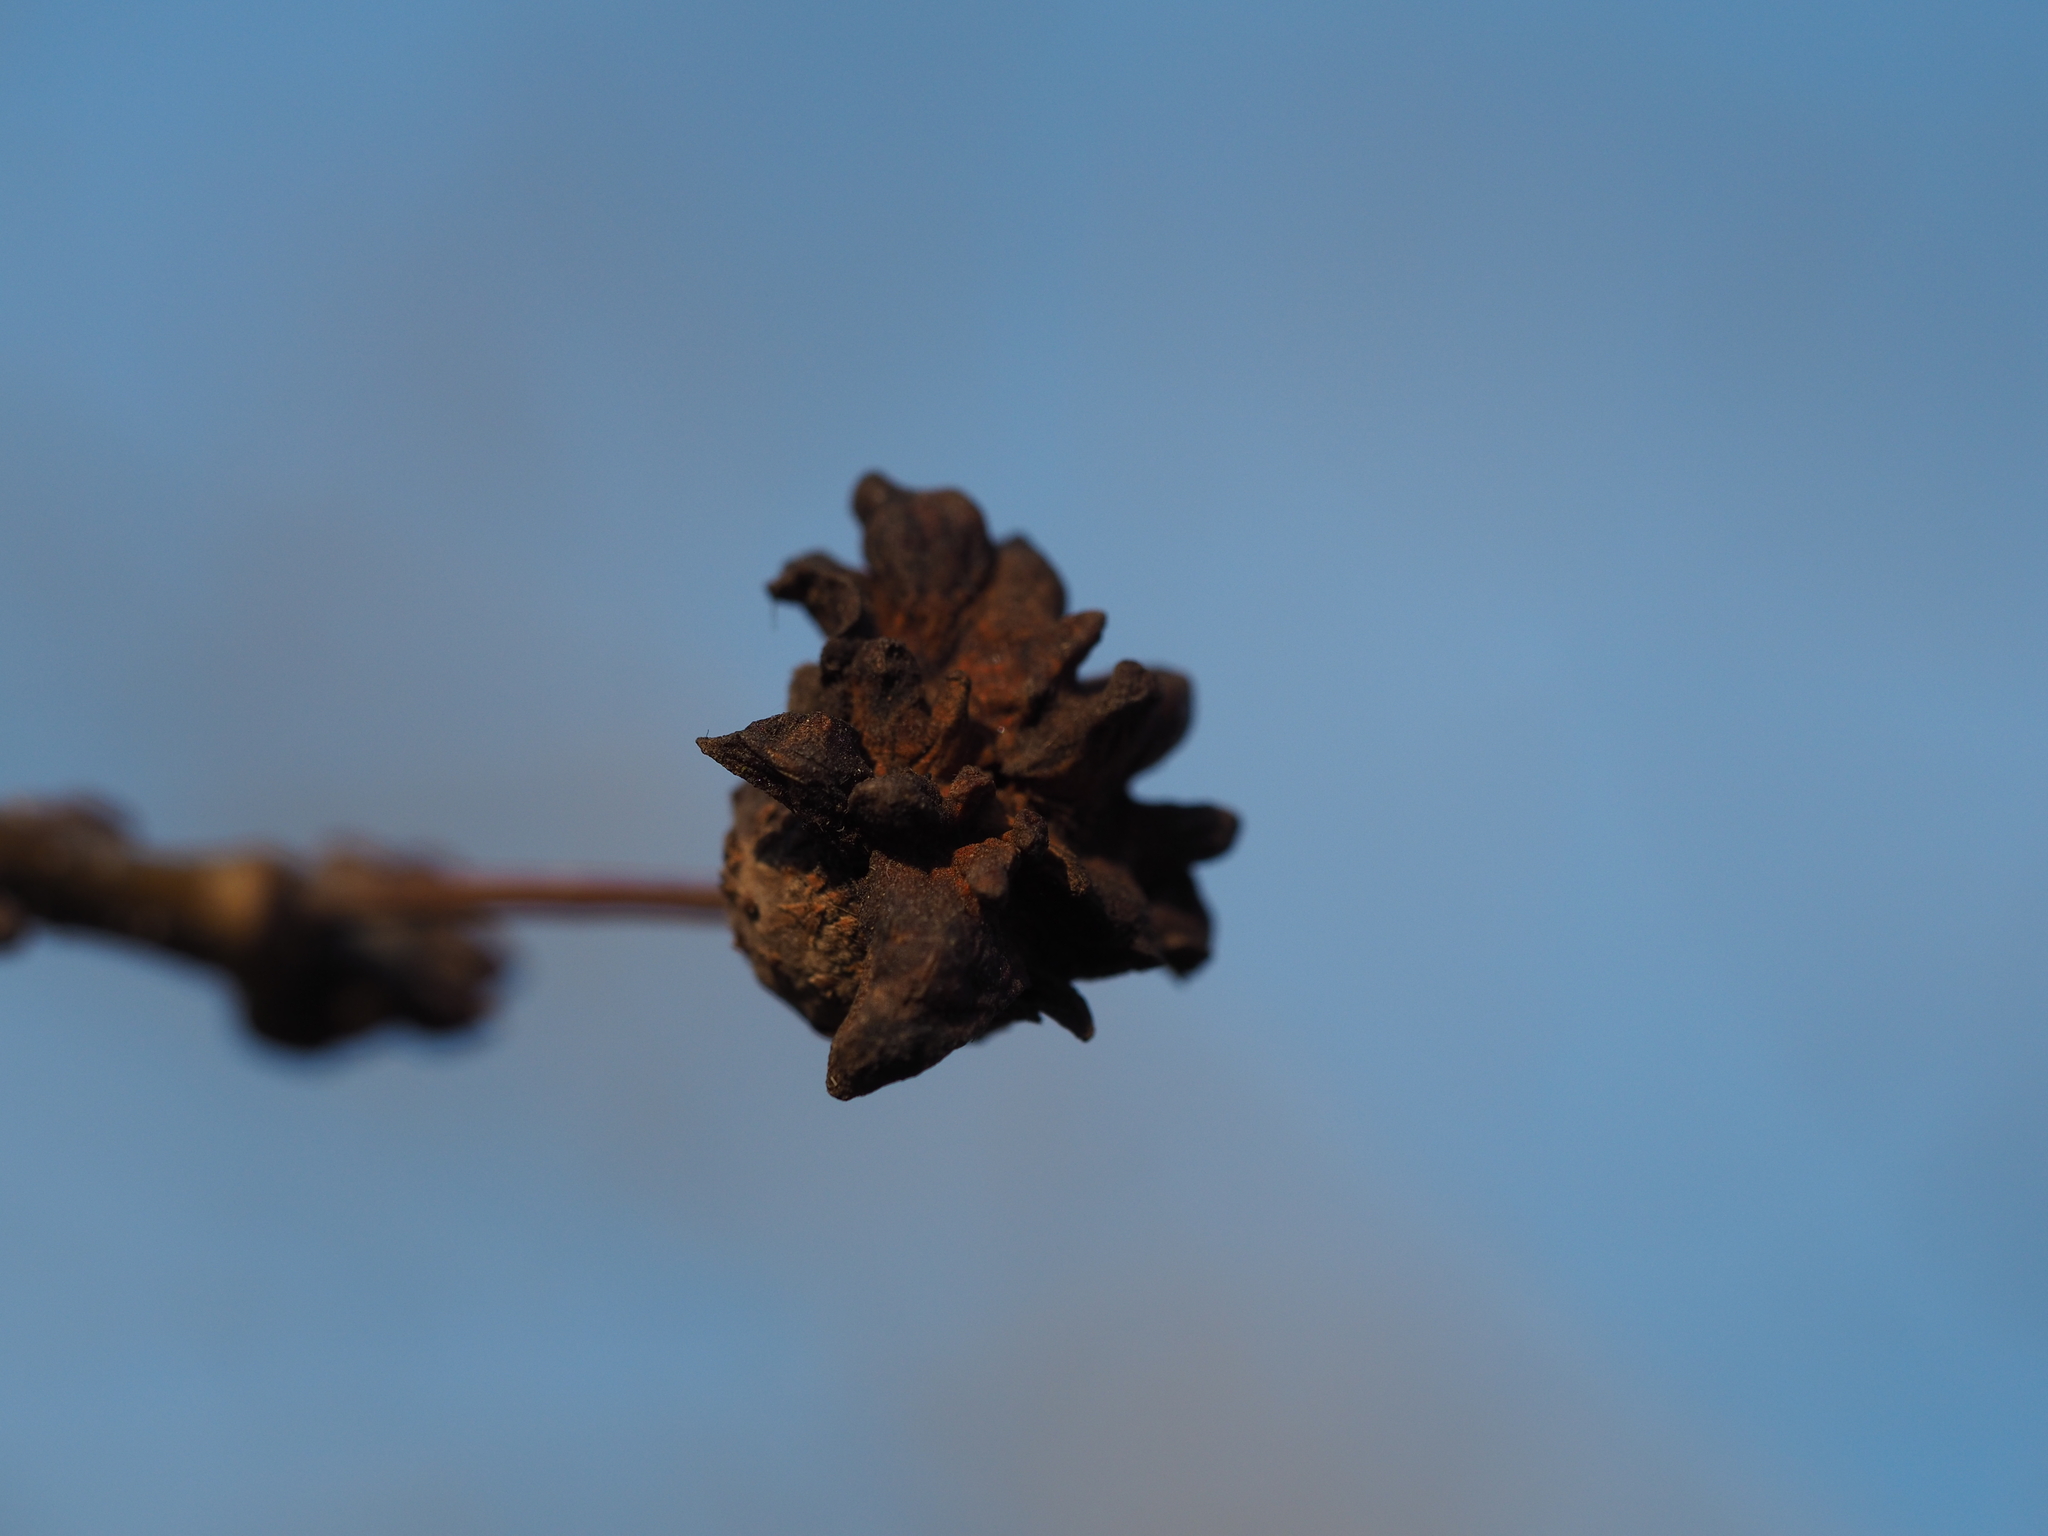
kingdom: Animalia
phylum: Arthropoda
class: Insecta
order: Hymenoptera
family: Cynipidae
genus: Andricus
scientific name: Andricus quercuscalicis
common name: Knopper gall
